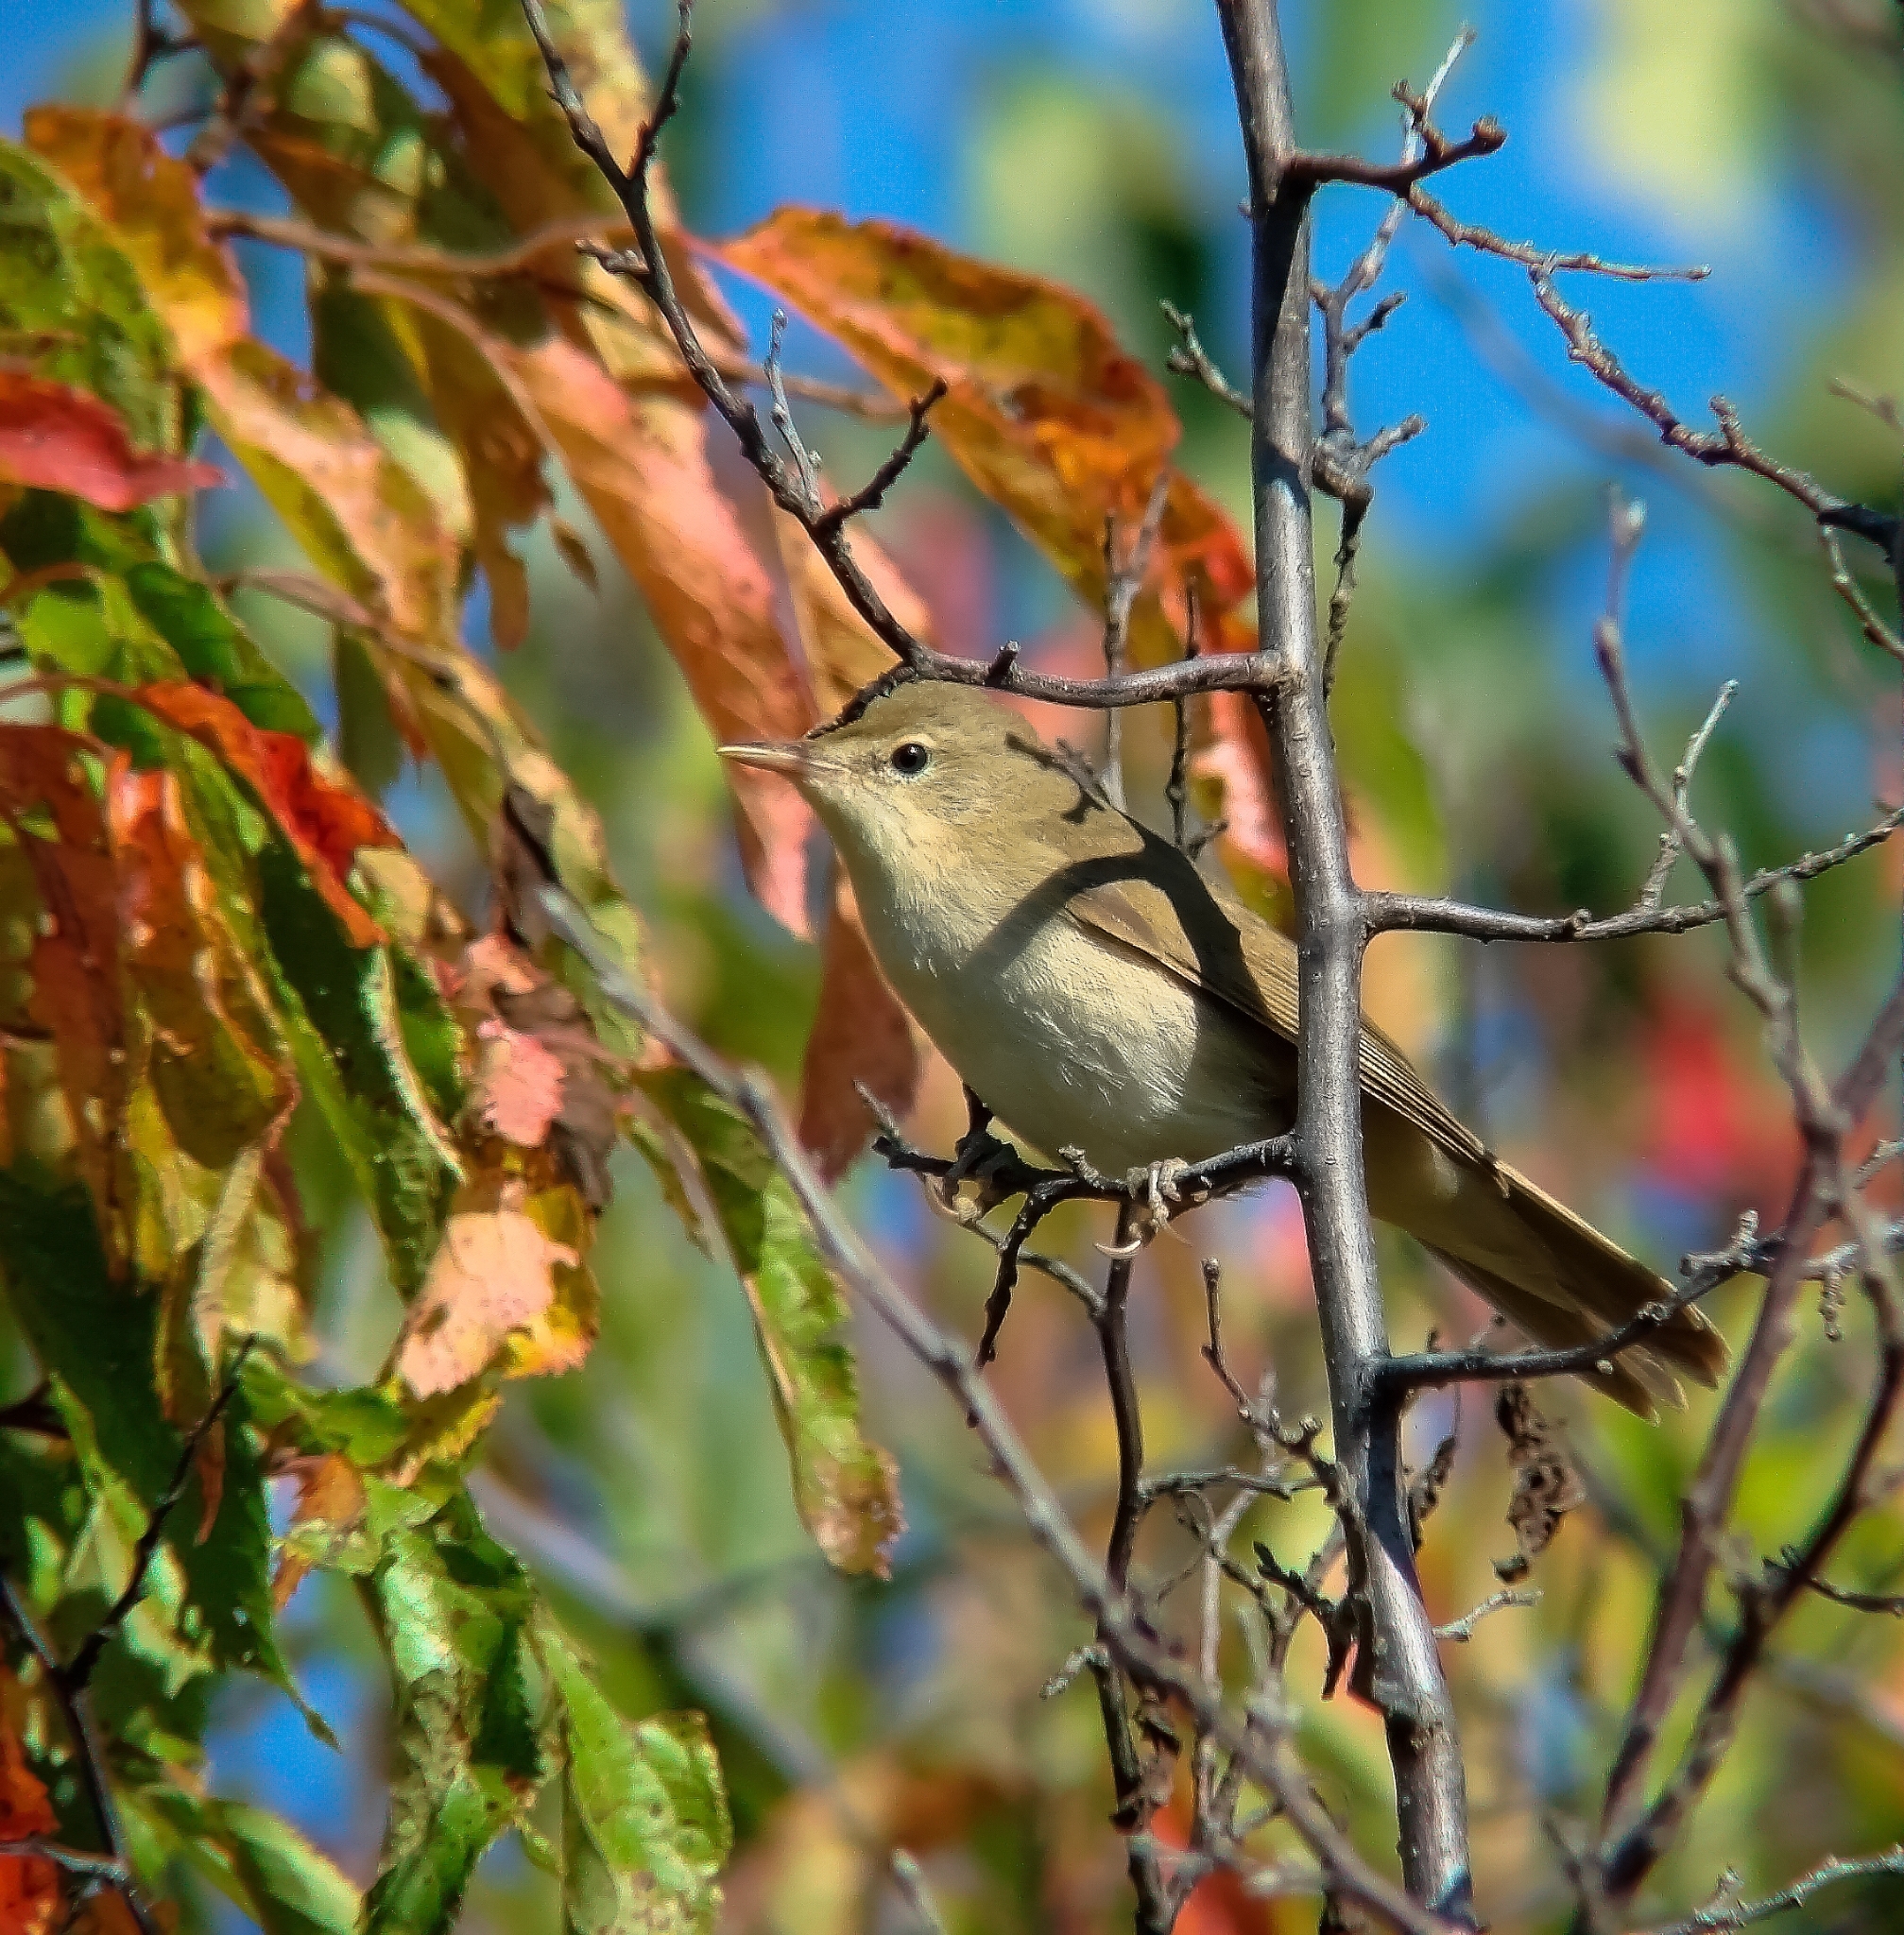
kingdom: Animalia
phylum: Chordata
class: Aves
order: Passeriformes
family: Phylloscopidae
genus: Phylloscopus
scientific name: Phylloscopus trochilus
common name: Willow warbler
